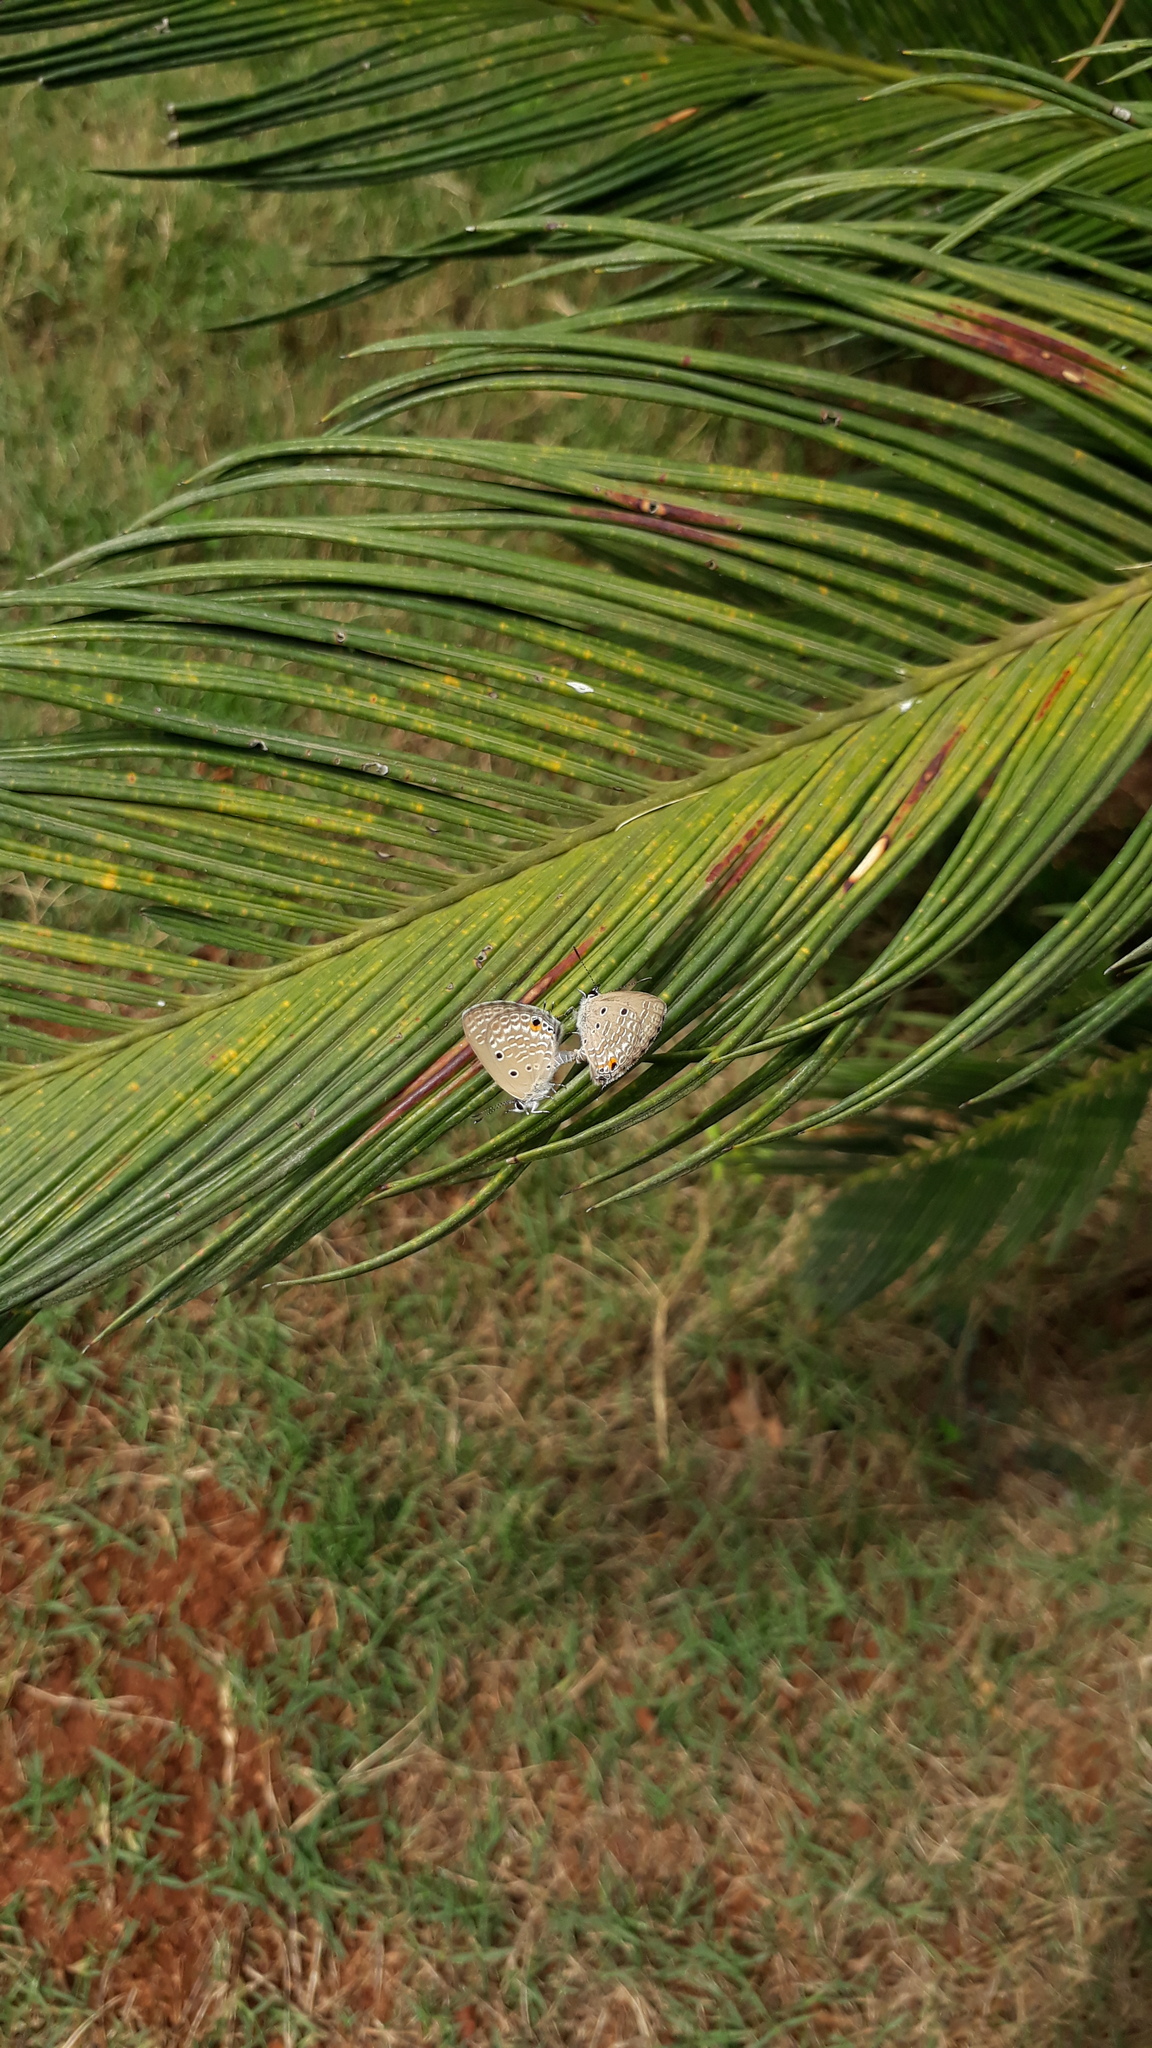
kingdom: Animalia
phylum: Arthropoda
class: Insecta
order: Lepidoptera
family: Lycaenidae
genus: Luthrodes
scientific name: Luthrodes pandava
